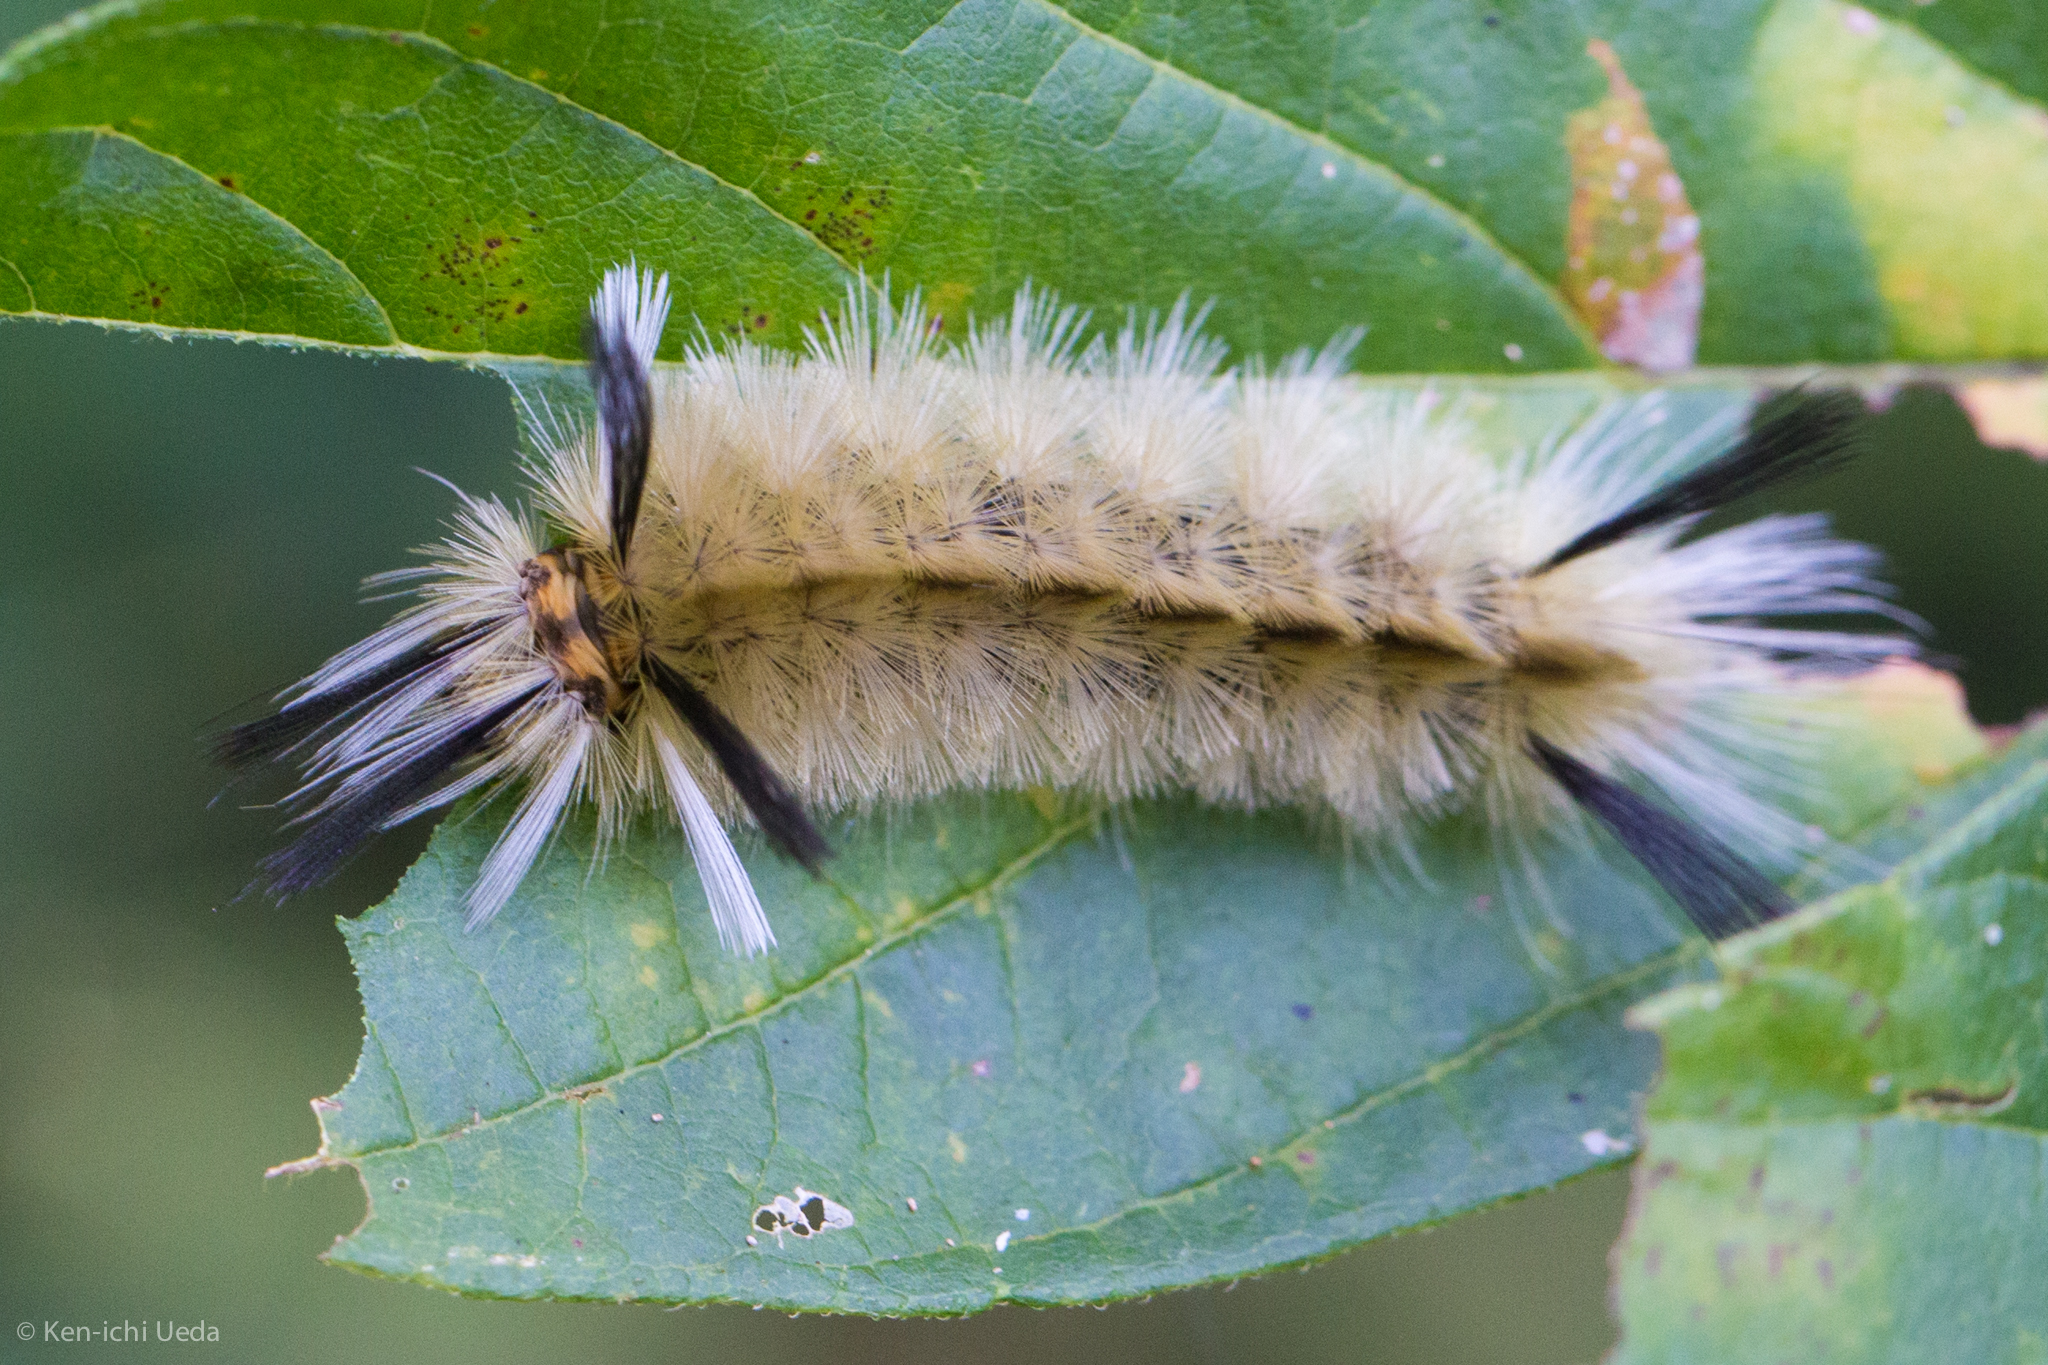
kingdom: Animalia
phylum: Arthropoda
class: Insecta
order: Lepidoptera
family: Erebidae
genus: Halysidota
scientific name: Halysidota tessellaris
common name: Banded tussock moth
